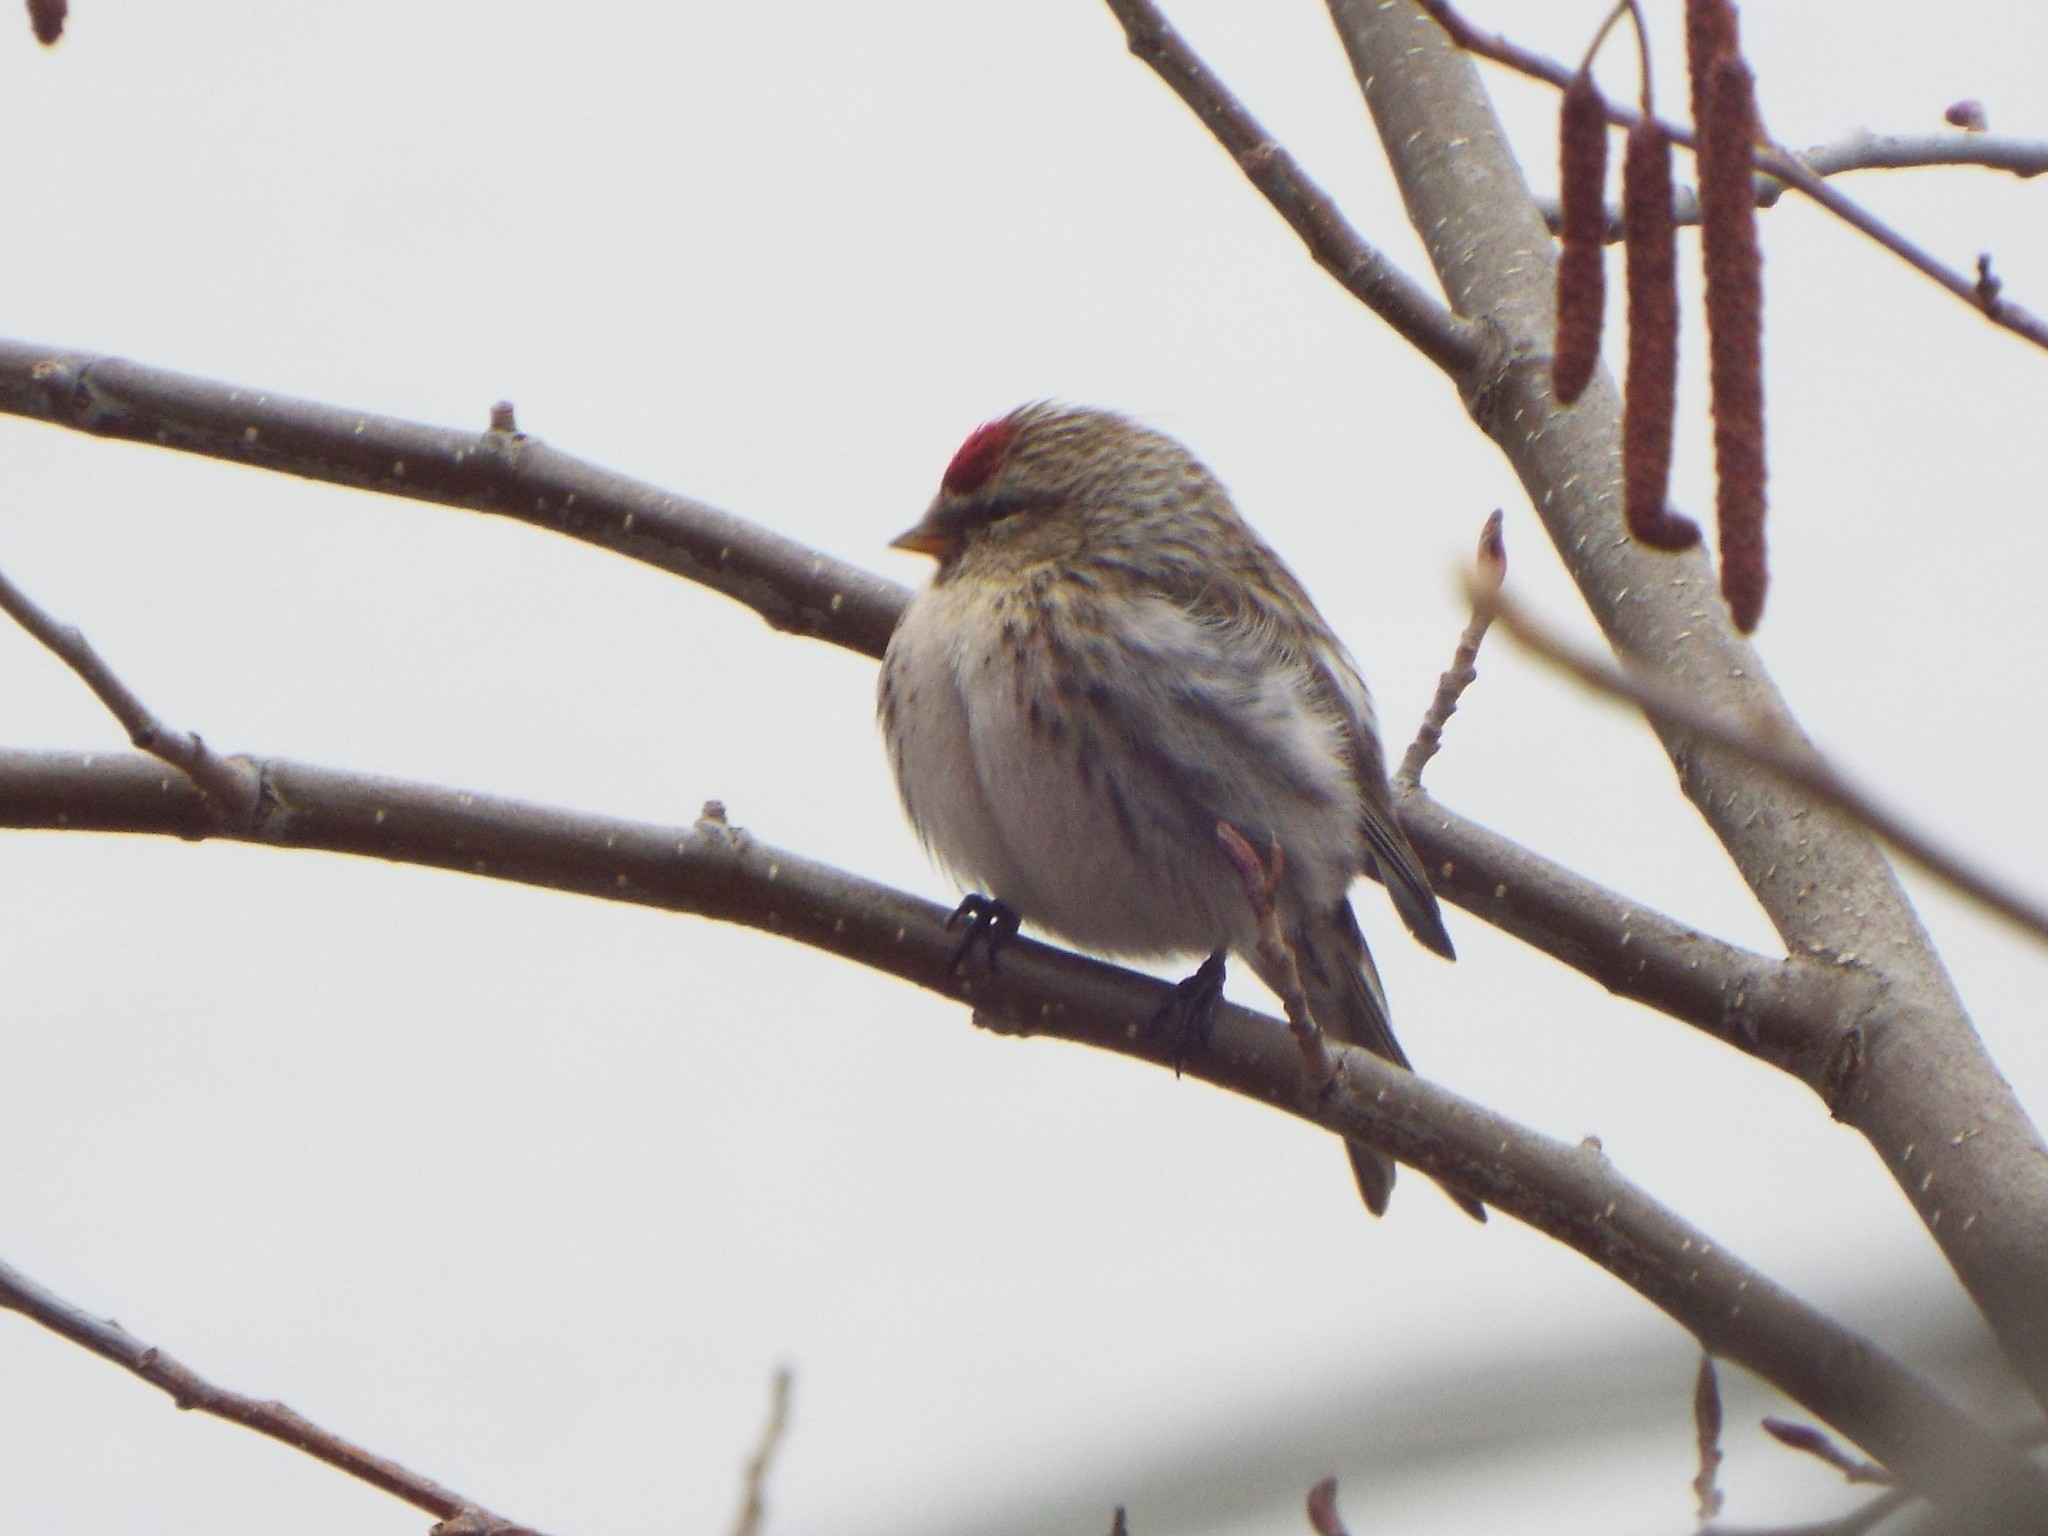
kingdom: Animalia
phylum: Chordata
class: Aves
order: Passeriformes
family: Fringillidae
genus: Acanthis
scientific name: Acanthis flammea
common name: Common redpoll
